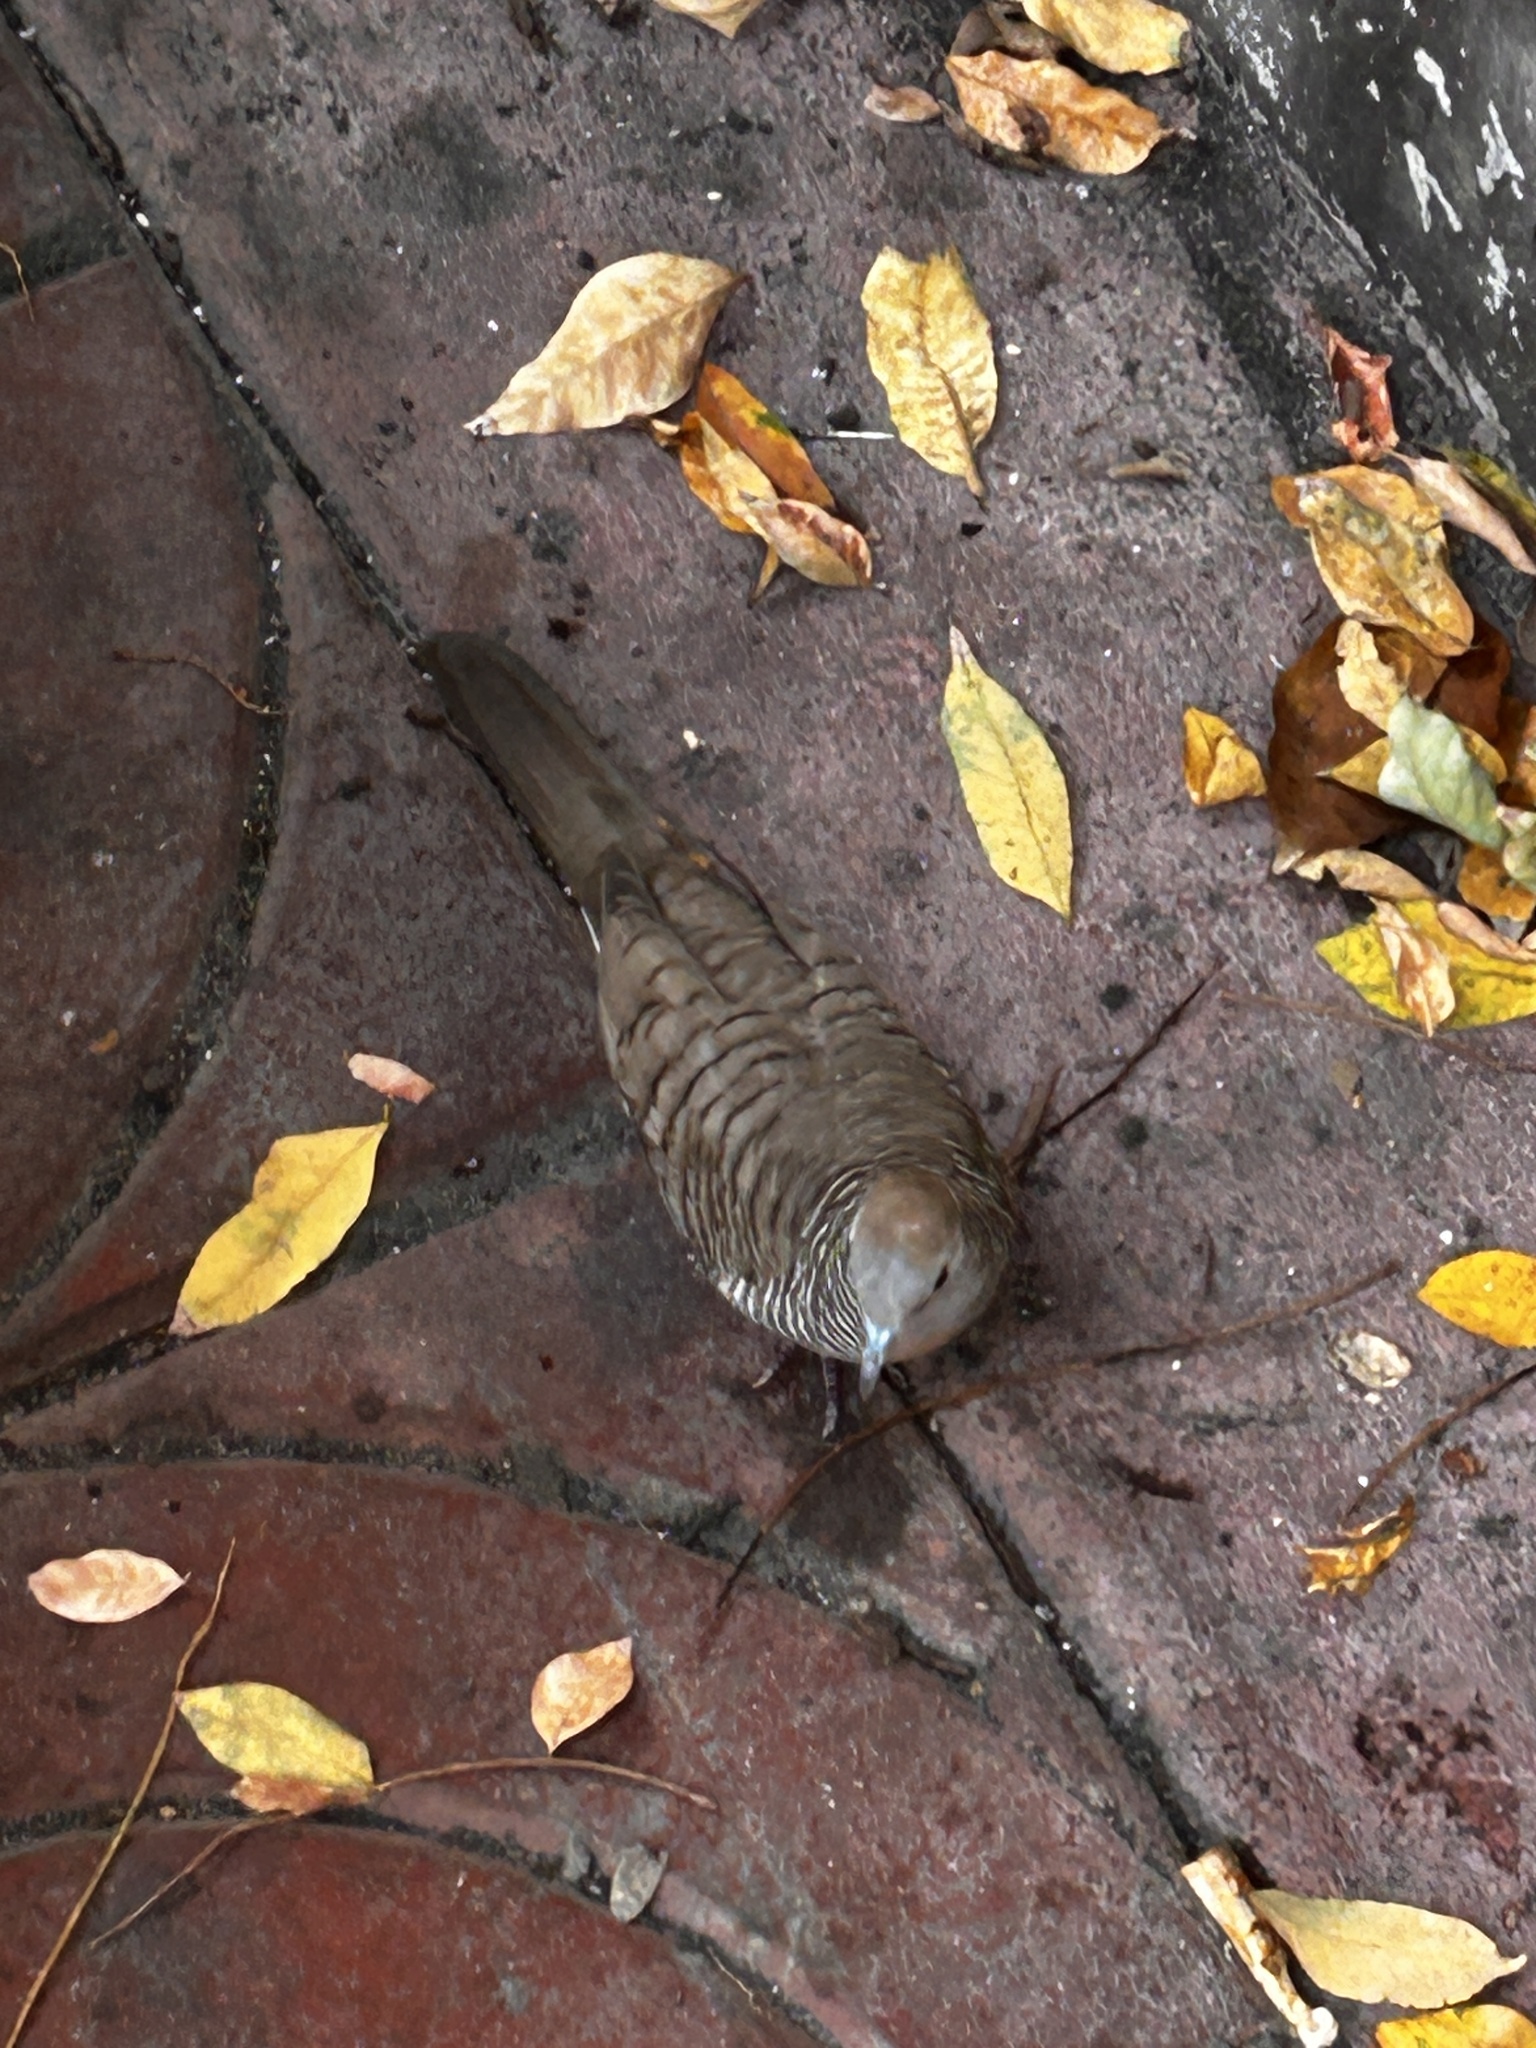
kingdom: Animalia
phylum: Chordata
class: Aves
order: Columbiformes
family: Columbidae
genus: Geopelia
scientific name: Geopelia striata
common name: Zebra dove
